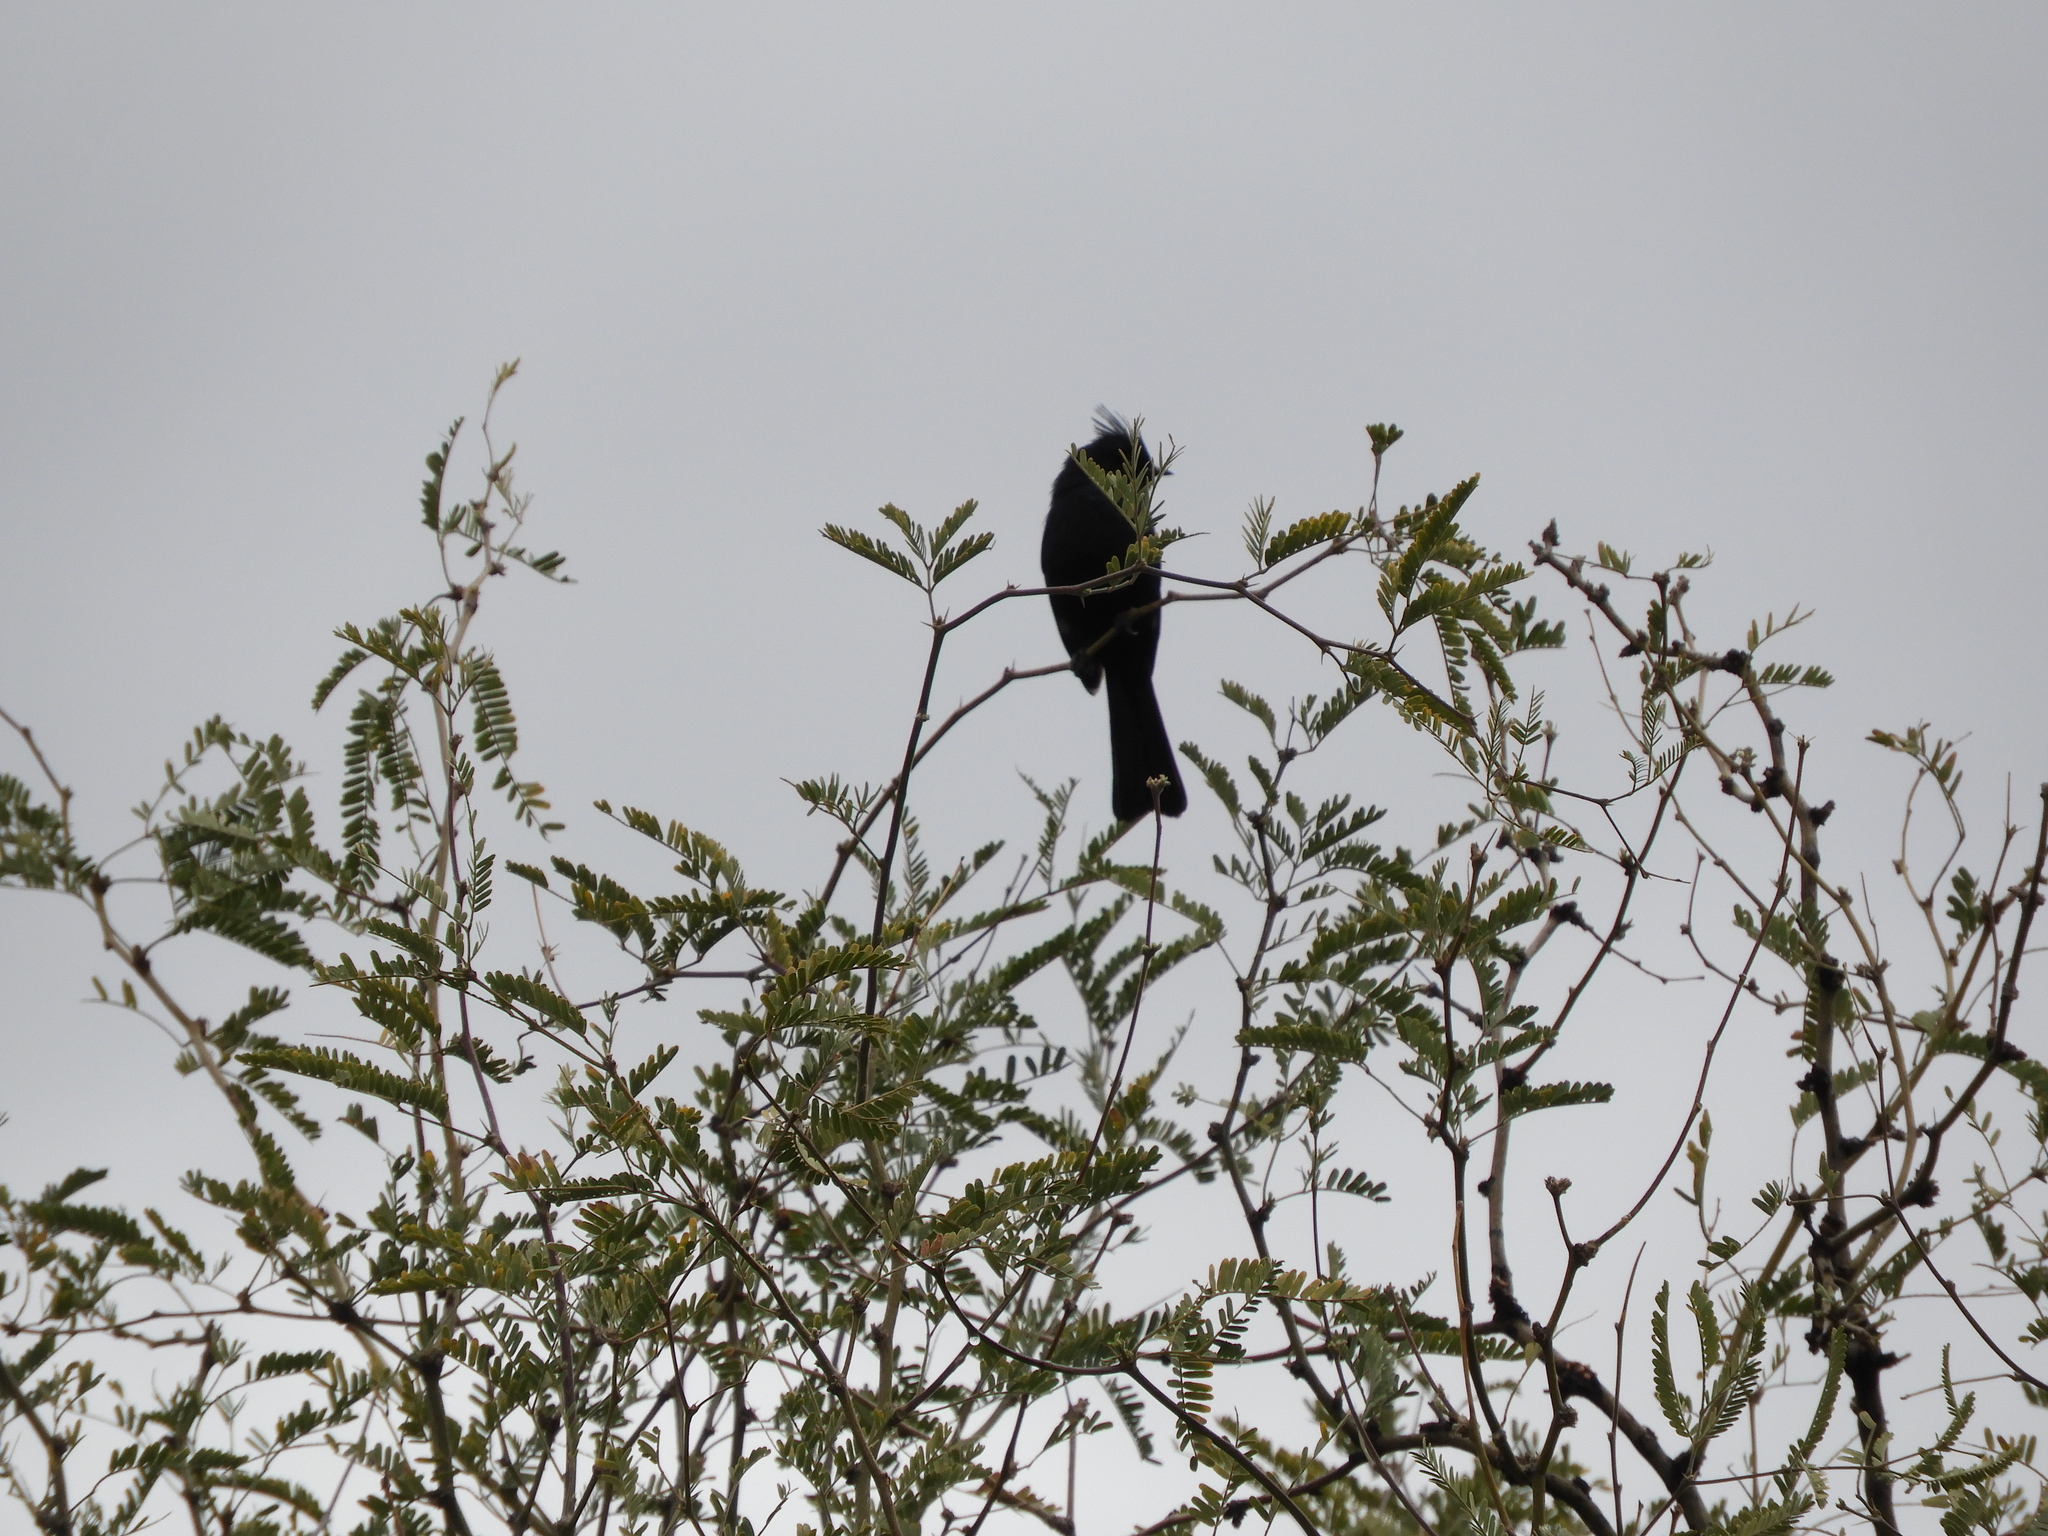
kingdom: Animalia
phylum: Chordata
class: Aves
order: Passeriformes
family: Ptilogonatidae
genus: Phainopepla
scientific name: Phainopepla nitens
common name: Phainopepla
